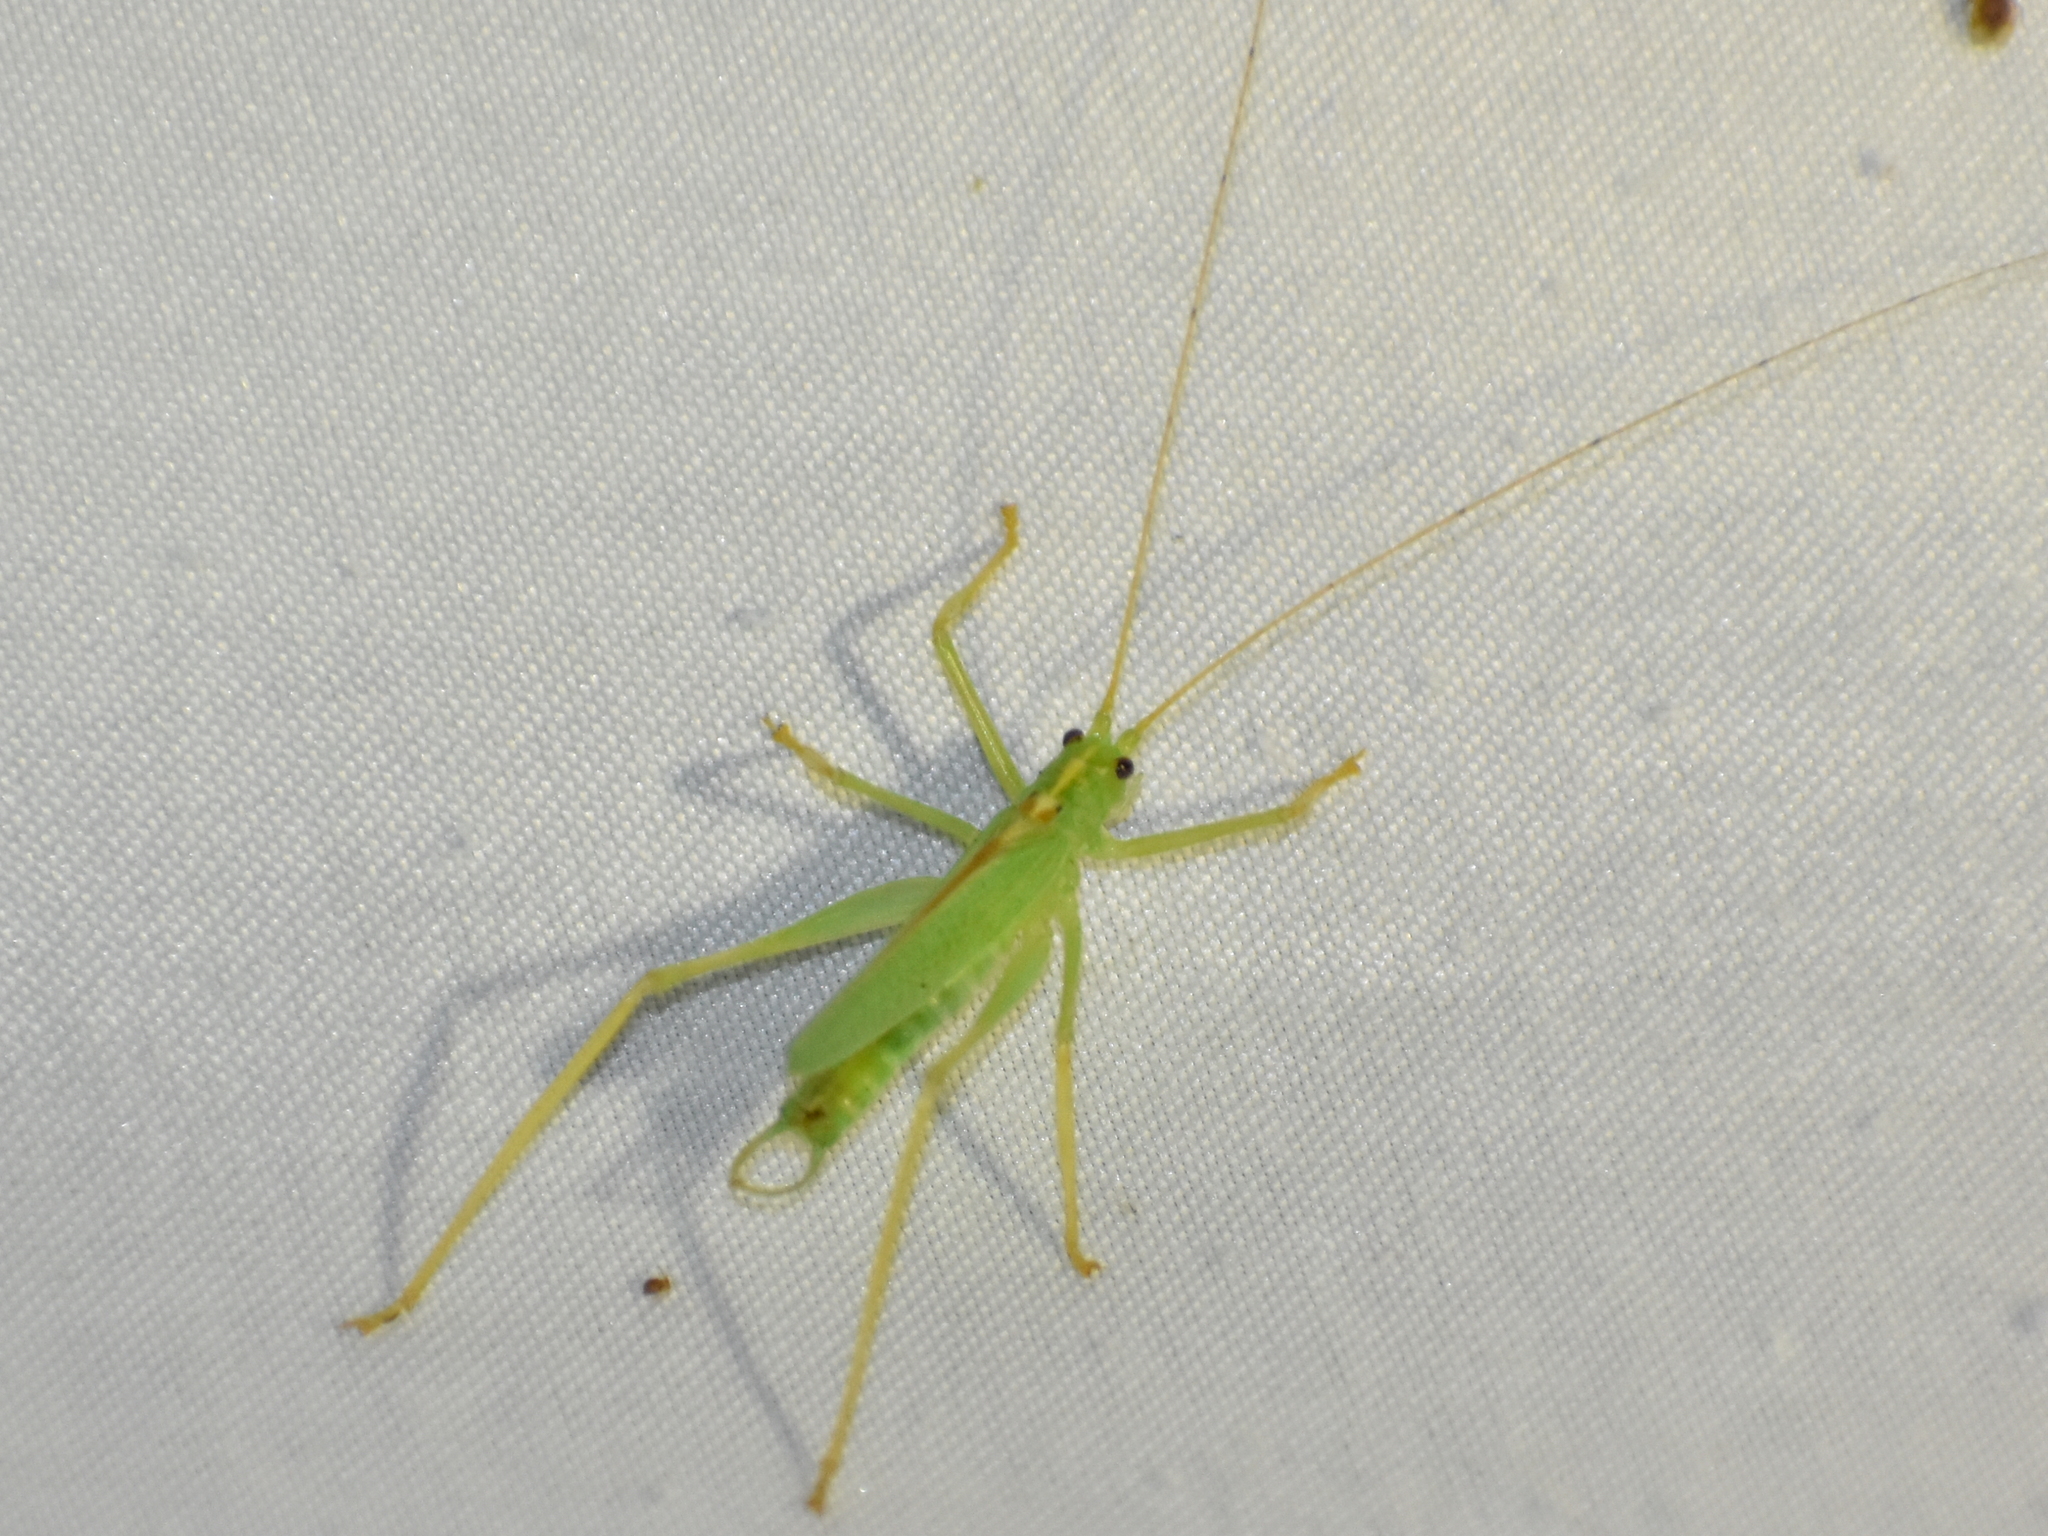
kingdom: Animalia
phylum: Arthropoda
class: Insecta
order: Orthoptera
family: Tettigoniidae
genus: Meconema
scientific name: Meconema thalassinum
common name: Oak bush-cricket
